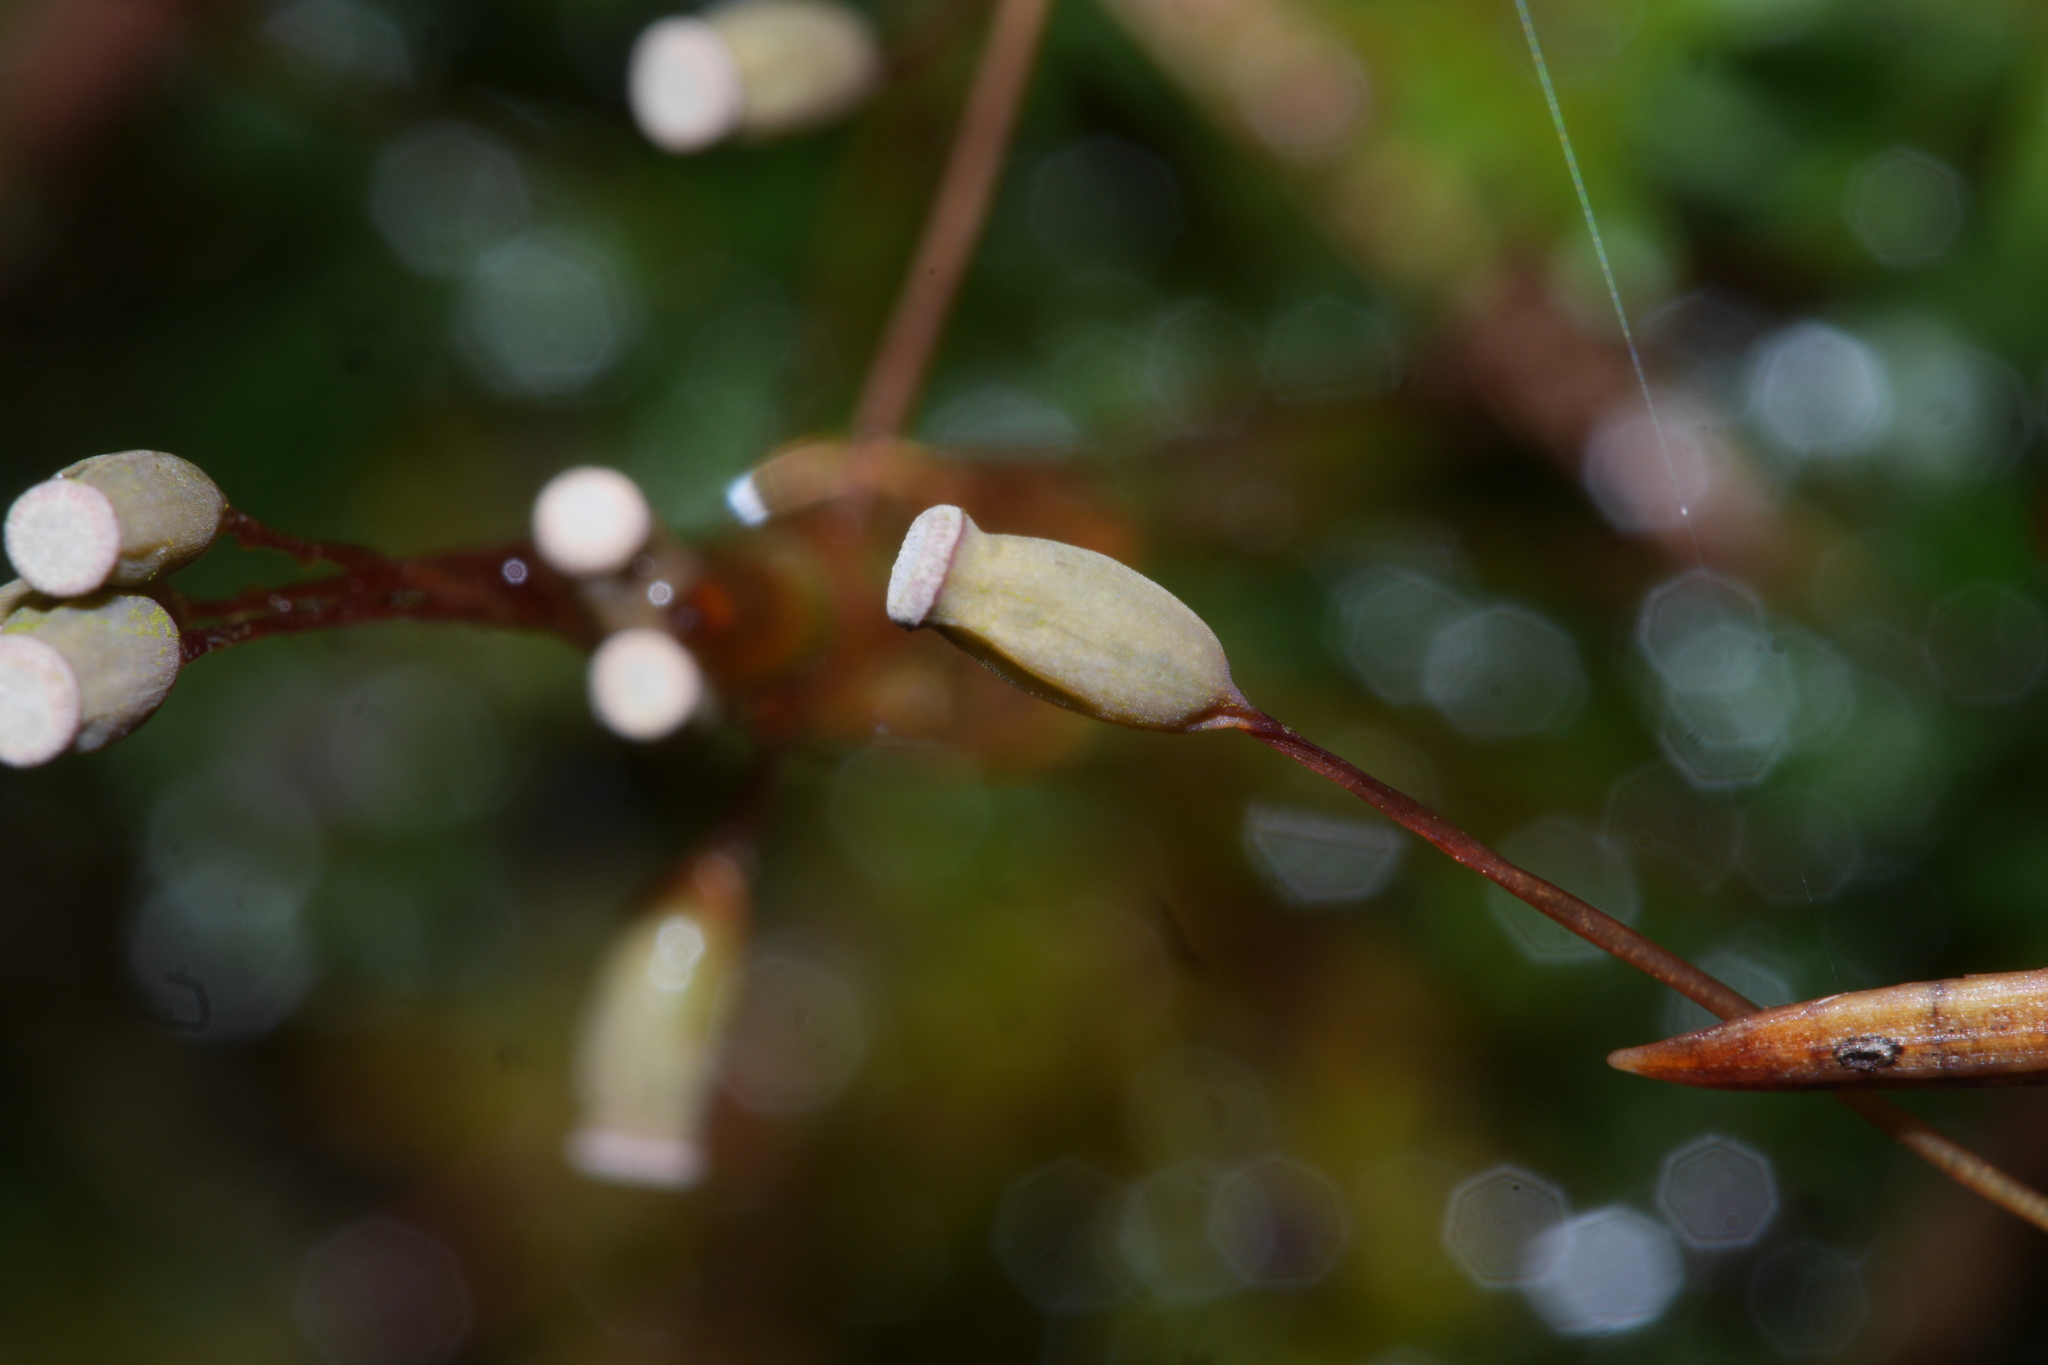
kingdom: Plantae
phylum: Bryophyta
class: Polytrichopsida
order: Polytrichales
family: Polytrichaceae
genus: Pogonatum
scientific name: Pogonatum aloides
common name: Aloe haircap
